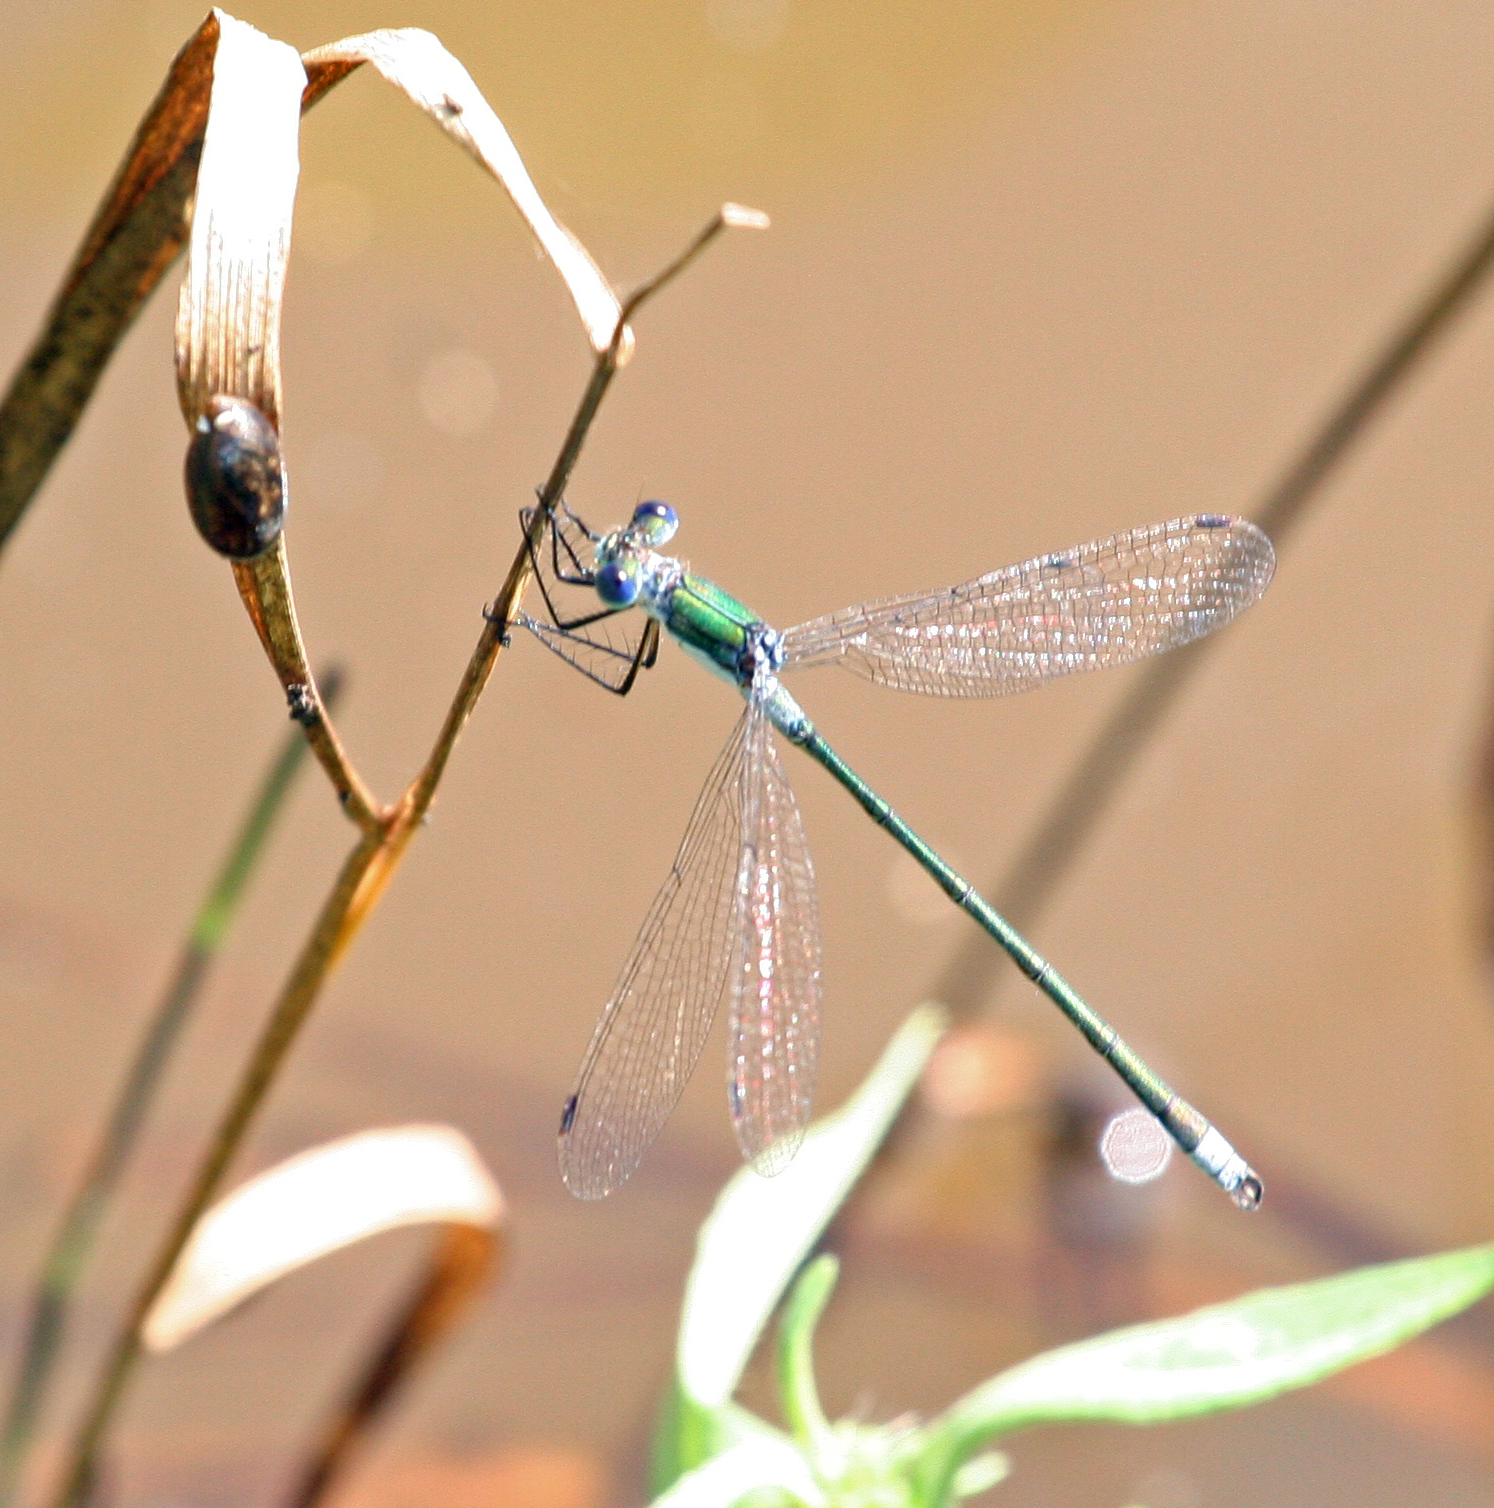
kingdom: Animalia
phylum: Arthropoda
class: Insecta
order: Odonata
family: Lestidae
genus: Lestes
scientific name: Lestes sponsa
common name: Common spreadwing
